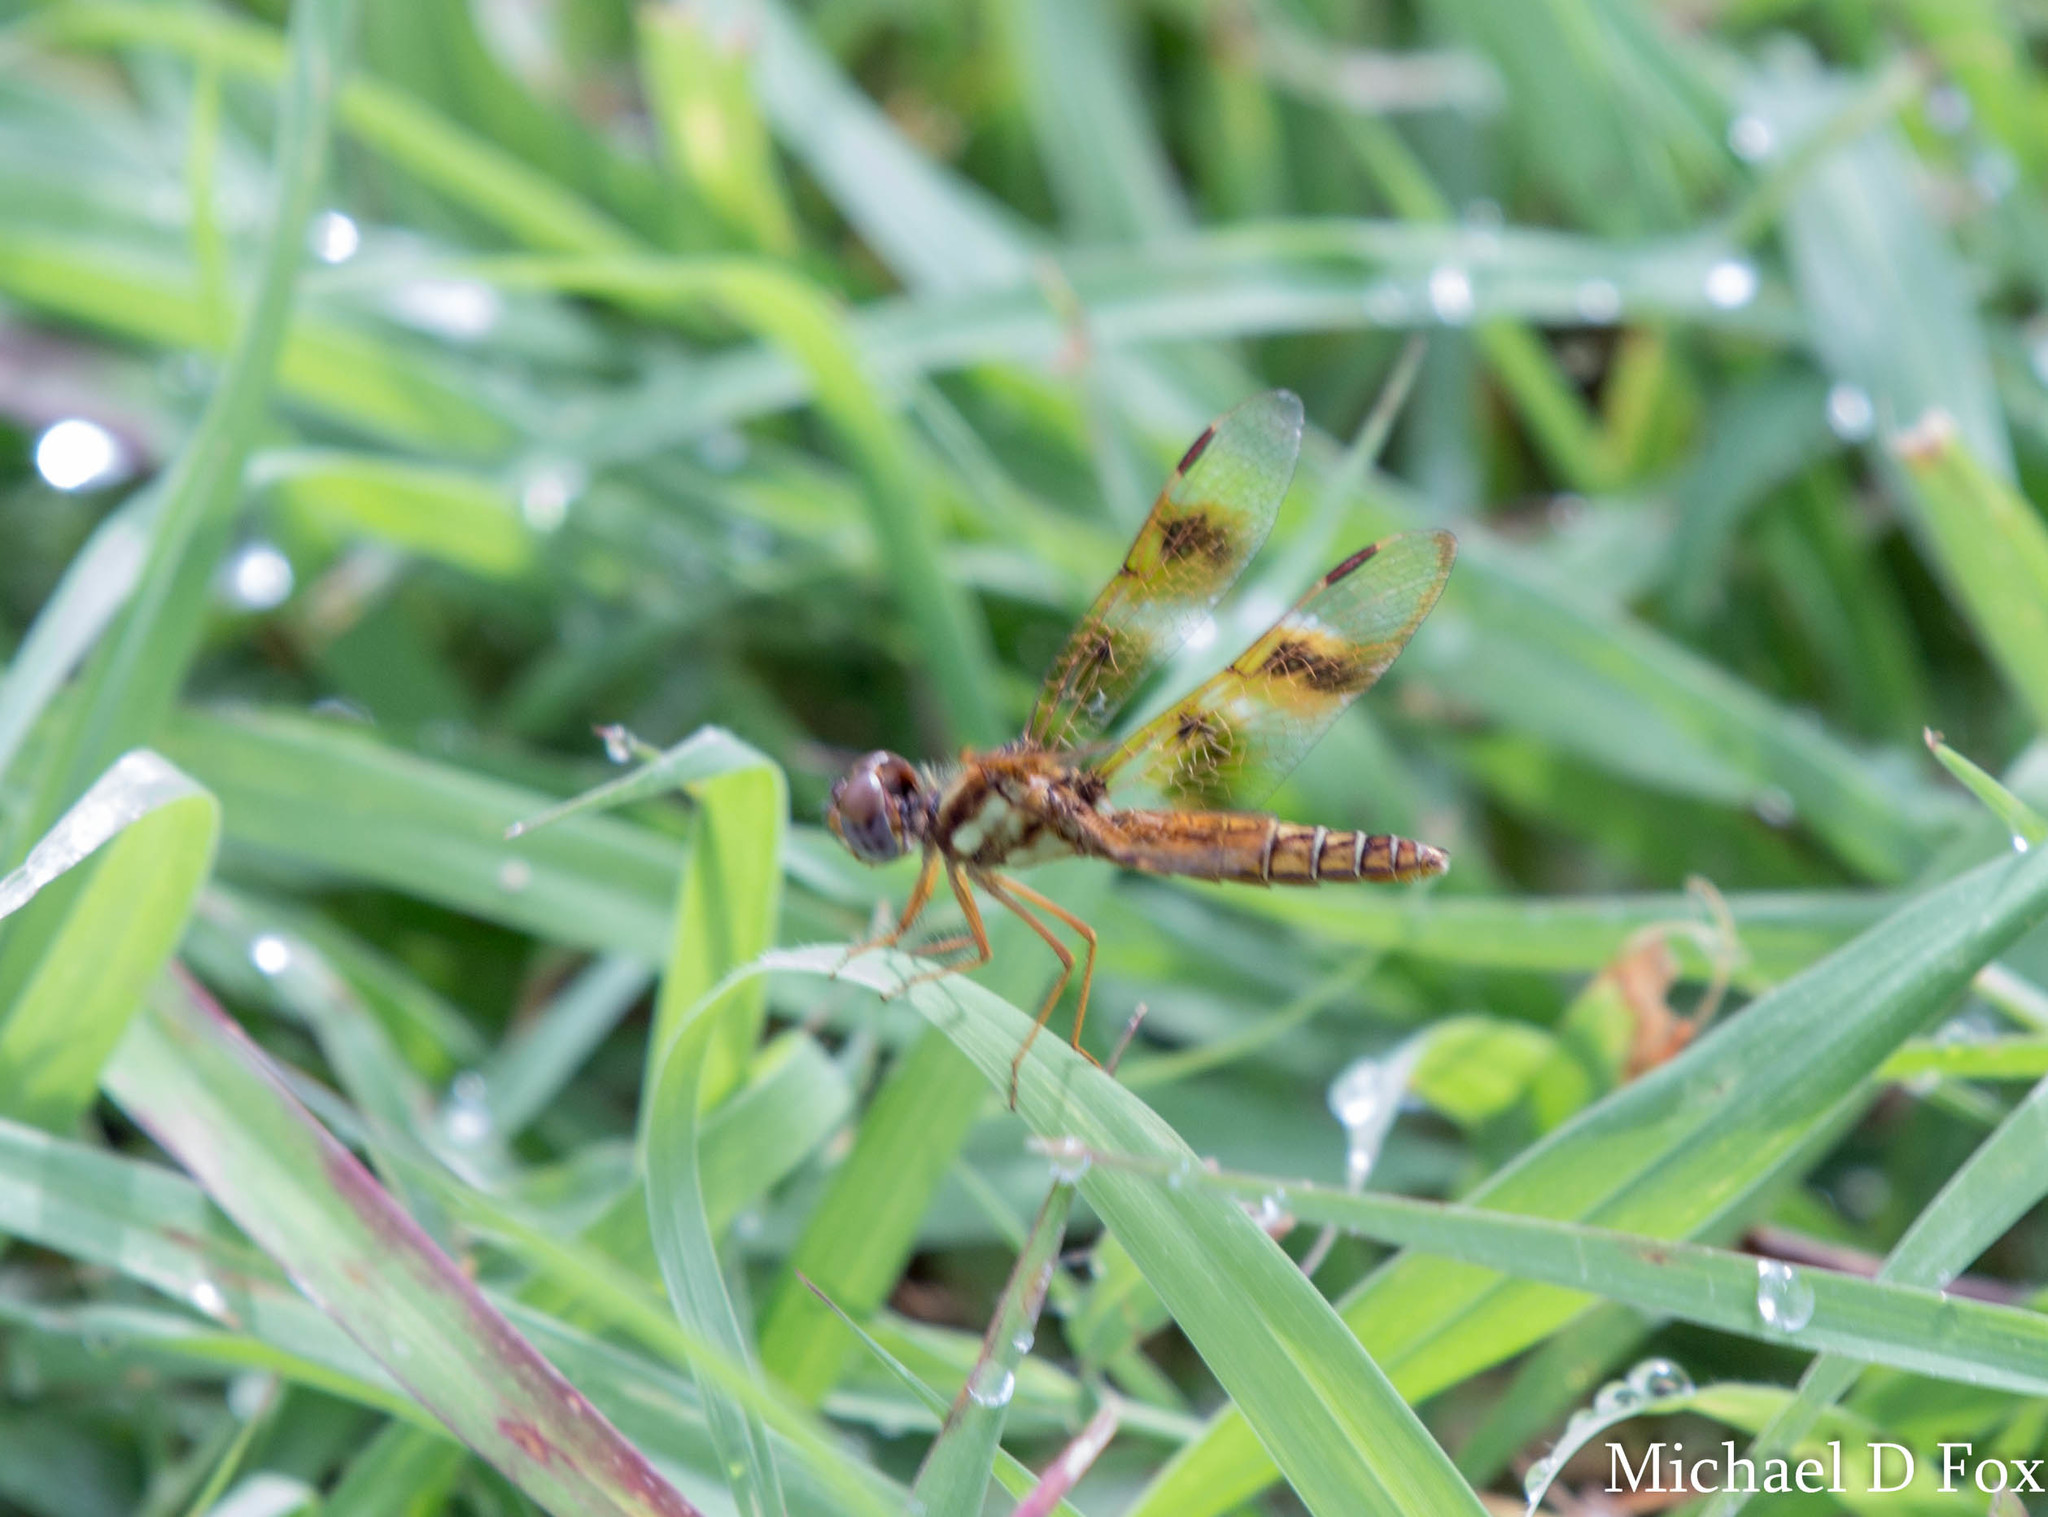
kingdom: Animalia
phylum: Arthropoda
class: Insecta
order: Odonata
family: Libellulidae
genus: Perithemis
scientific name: Perithemis tenera
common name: Eastern amberwing
